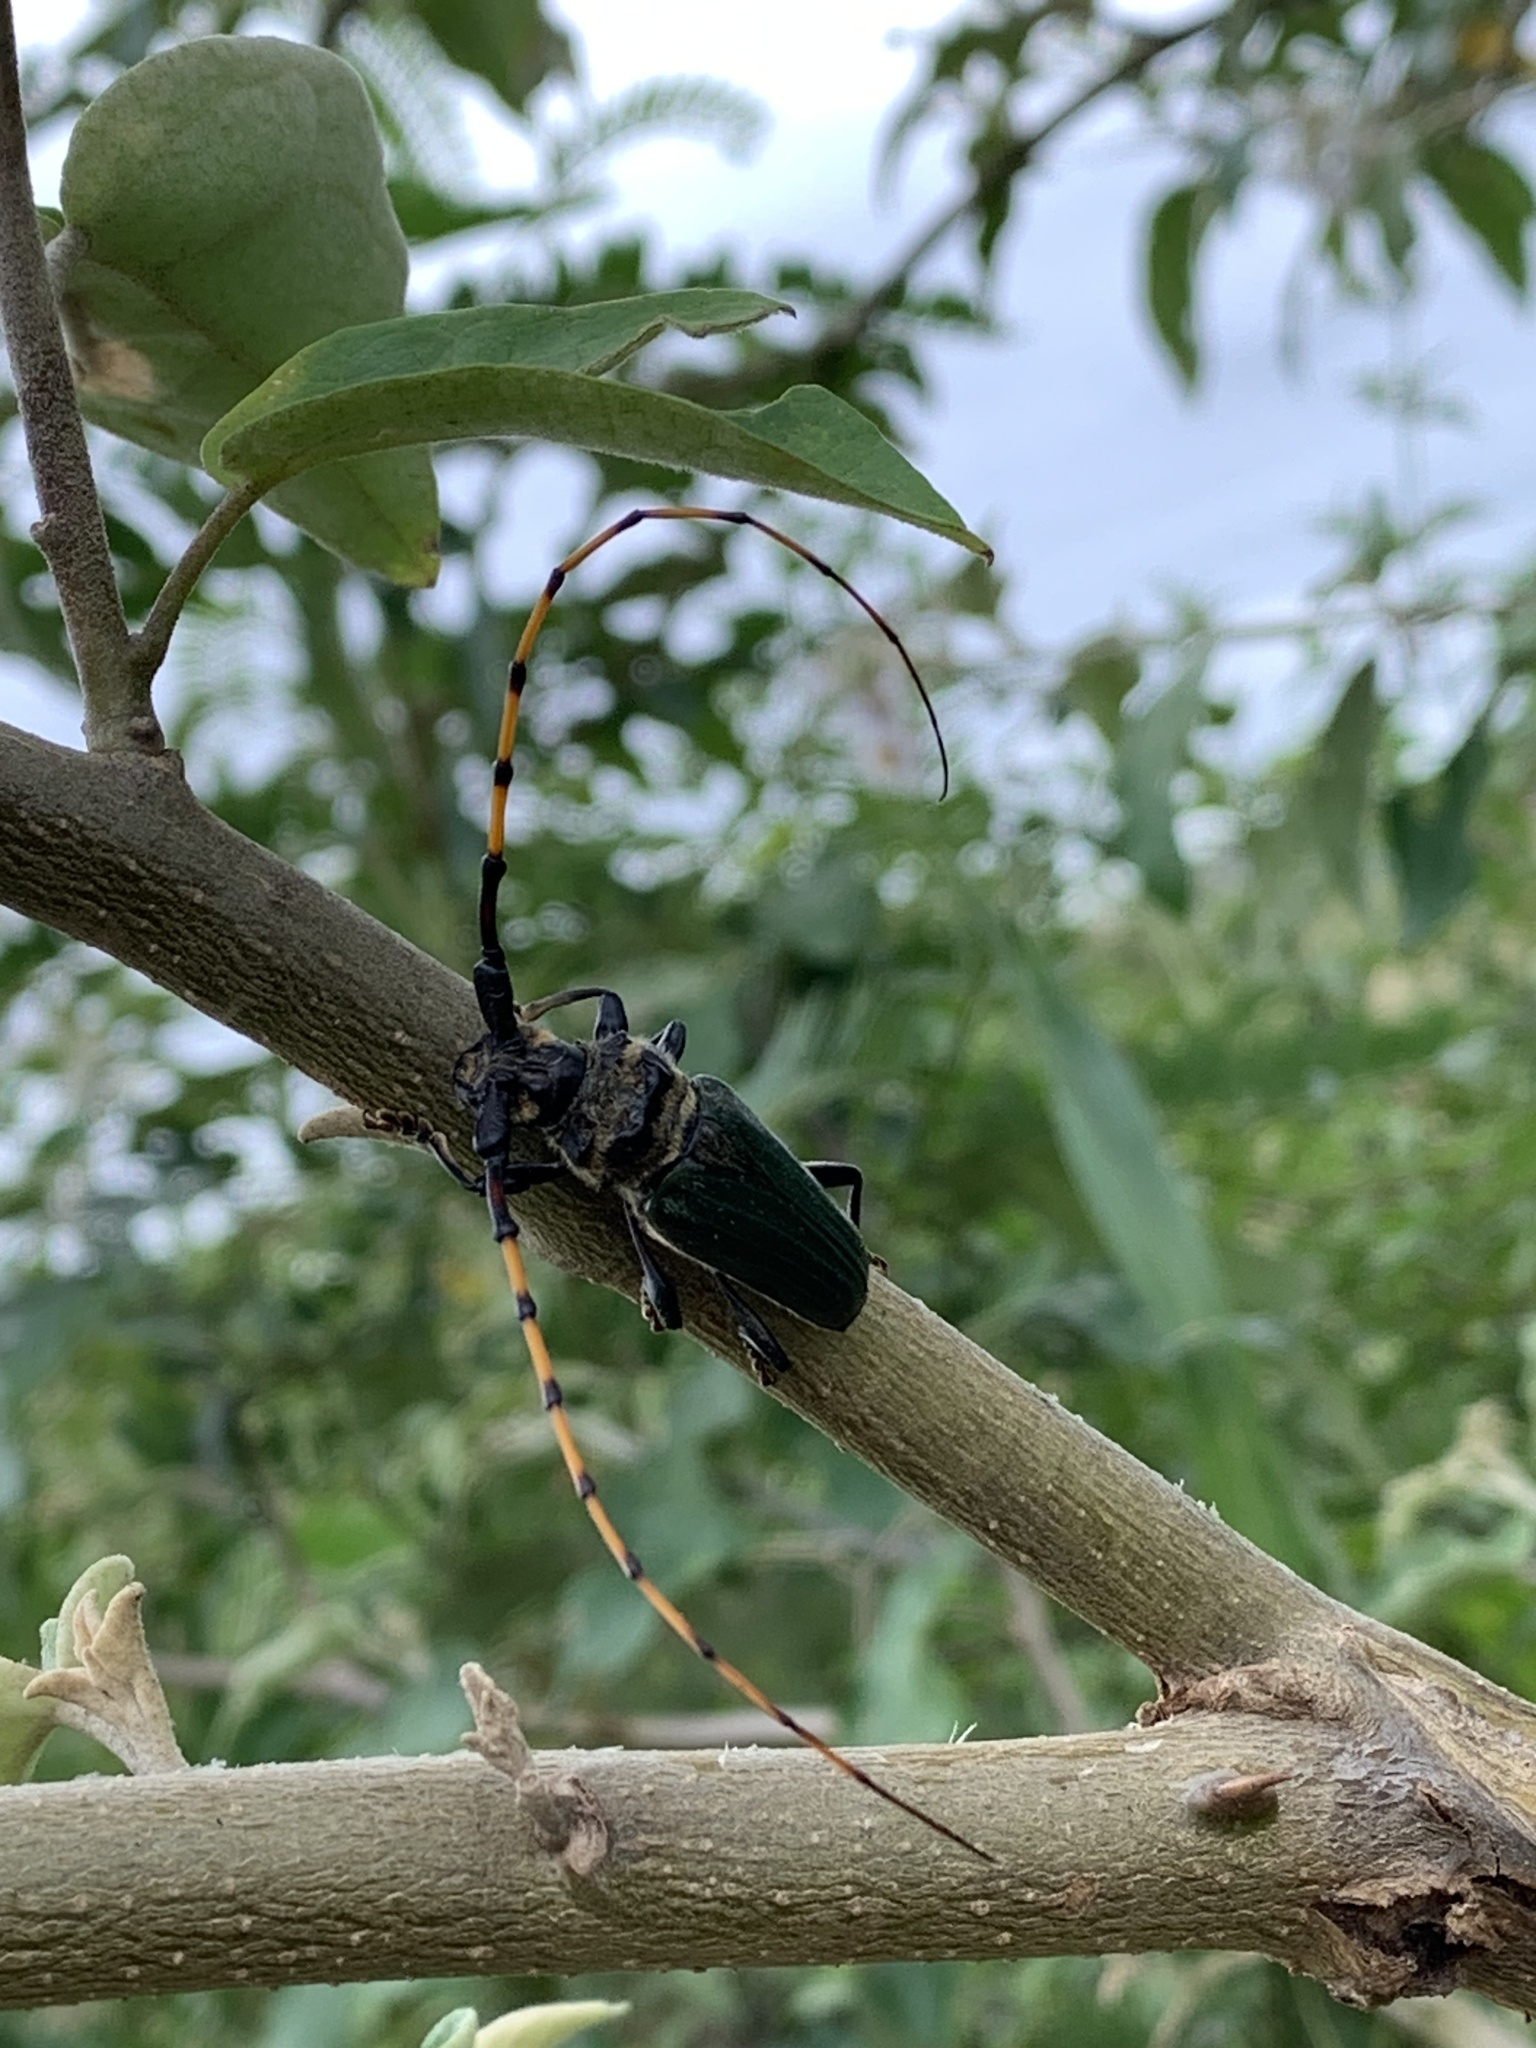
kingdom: Animalia
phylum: Arthropoda
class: Insecta
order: Coleoptera
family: Cerambycidae
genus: Retrachydes
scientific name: Retrachydes thoracicus
